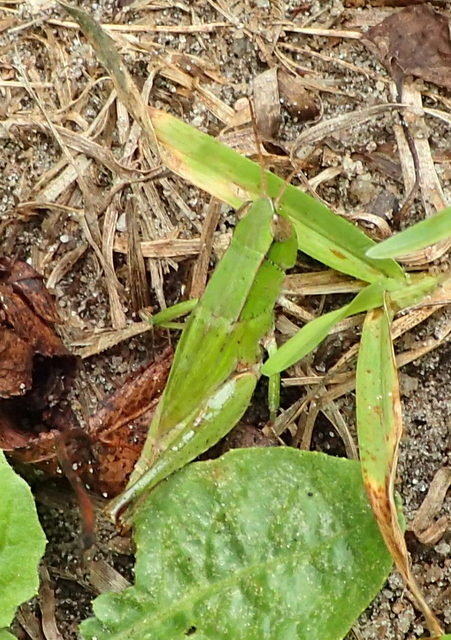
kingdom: Animalia
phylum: Arthropoda
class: Insecta
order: Orthoptera
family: Acrididae
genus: Dichromorpha
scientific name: Dichromorpha viridis
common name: Short-winged green grasshopper
